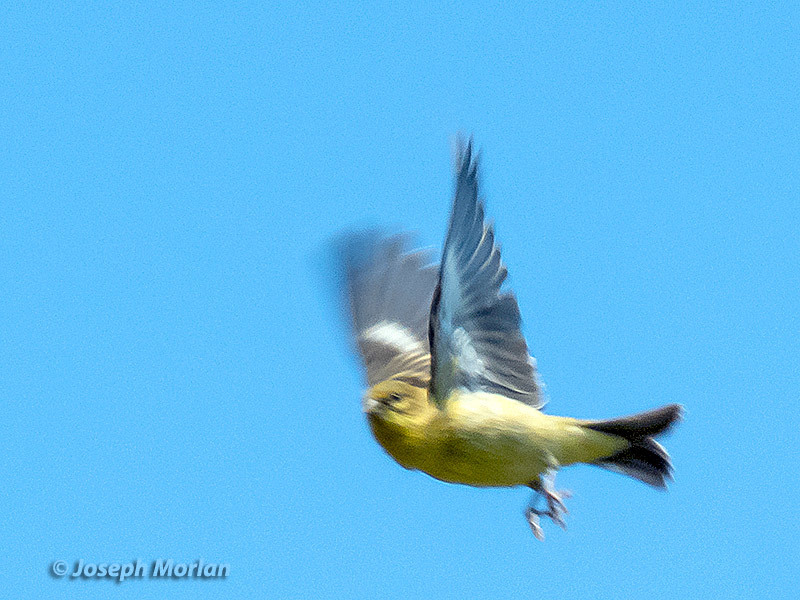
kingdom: Animalia
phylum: Chordata
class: Aves
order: Passeriformes
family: Fringillidae
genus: Spinus
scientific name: Spinus psaltria
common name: Lesser goldfinch
